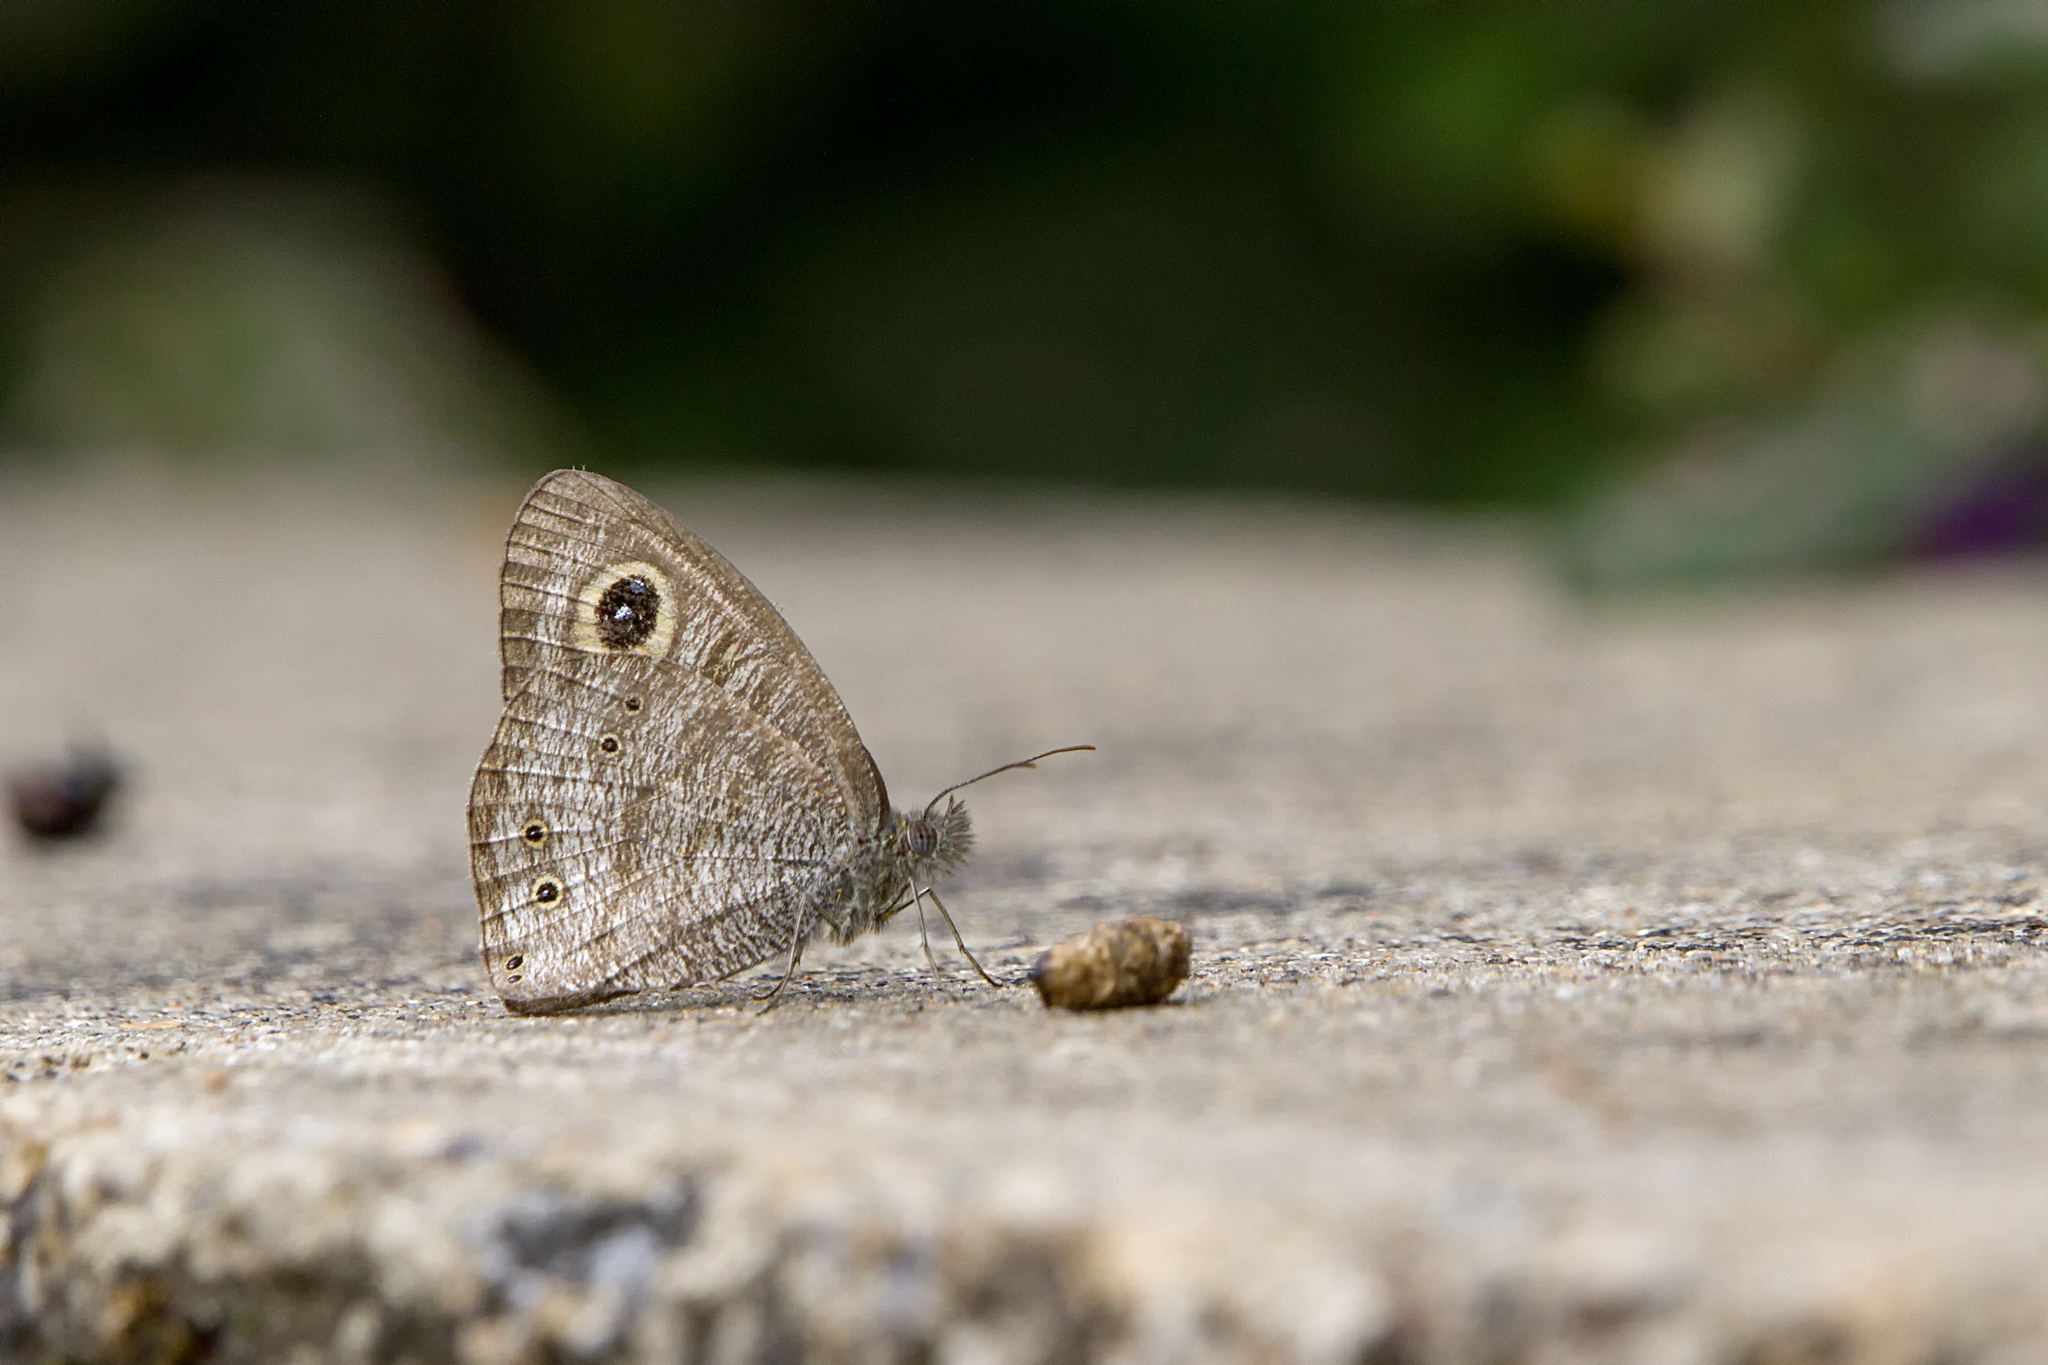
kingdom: Animalia
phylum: Arthropoda
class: Insecta
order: Lepidoptera
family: Nymphalidae
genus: Ypthima
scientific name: Ypthima baldus
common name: Common five-ring
